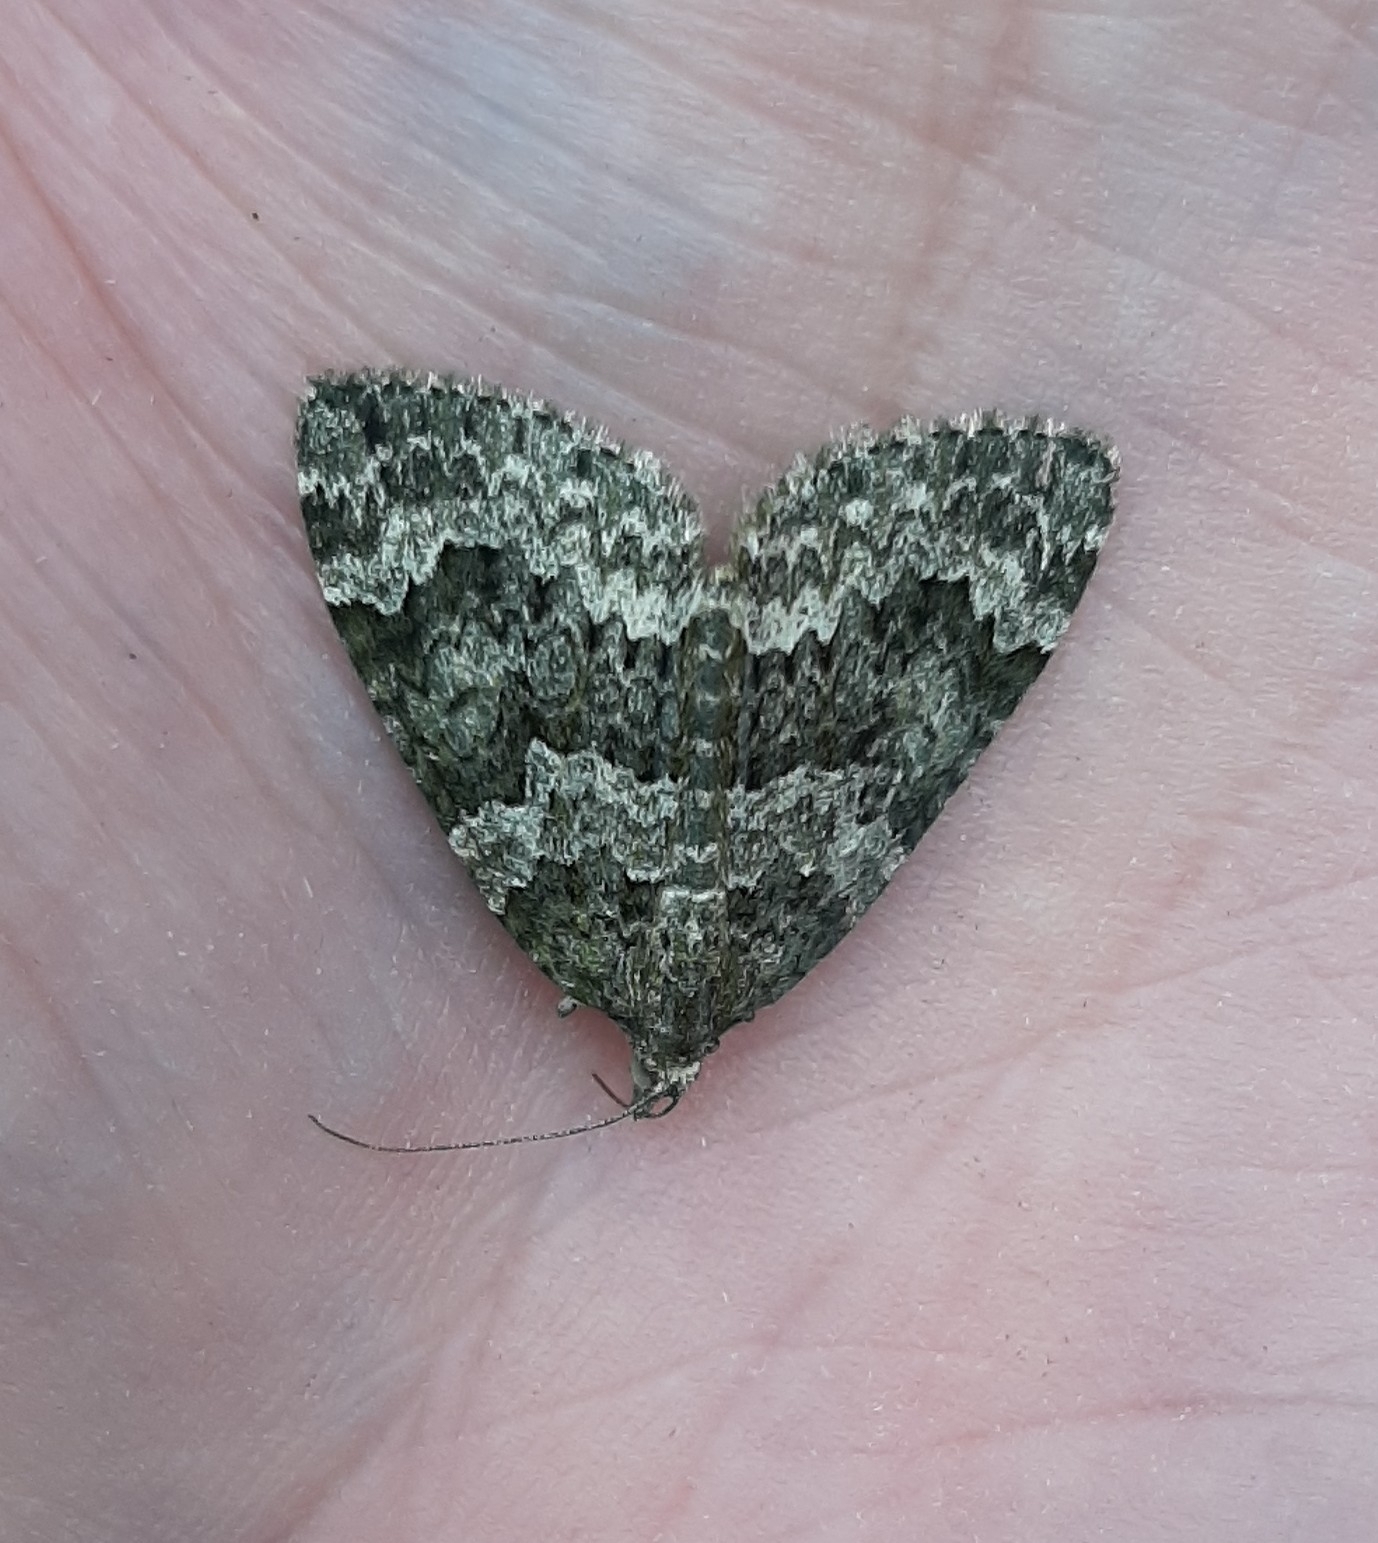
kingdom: Animalia
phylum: Arthropoda
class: Insecta
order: Lepidoptera
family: Geometridae
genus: Chloroclysta
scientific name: Chloroclysta miata
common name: Autumn green carpet
